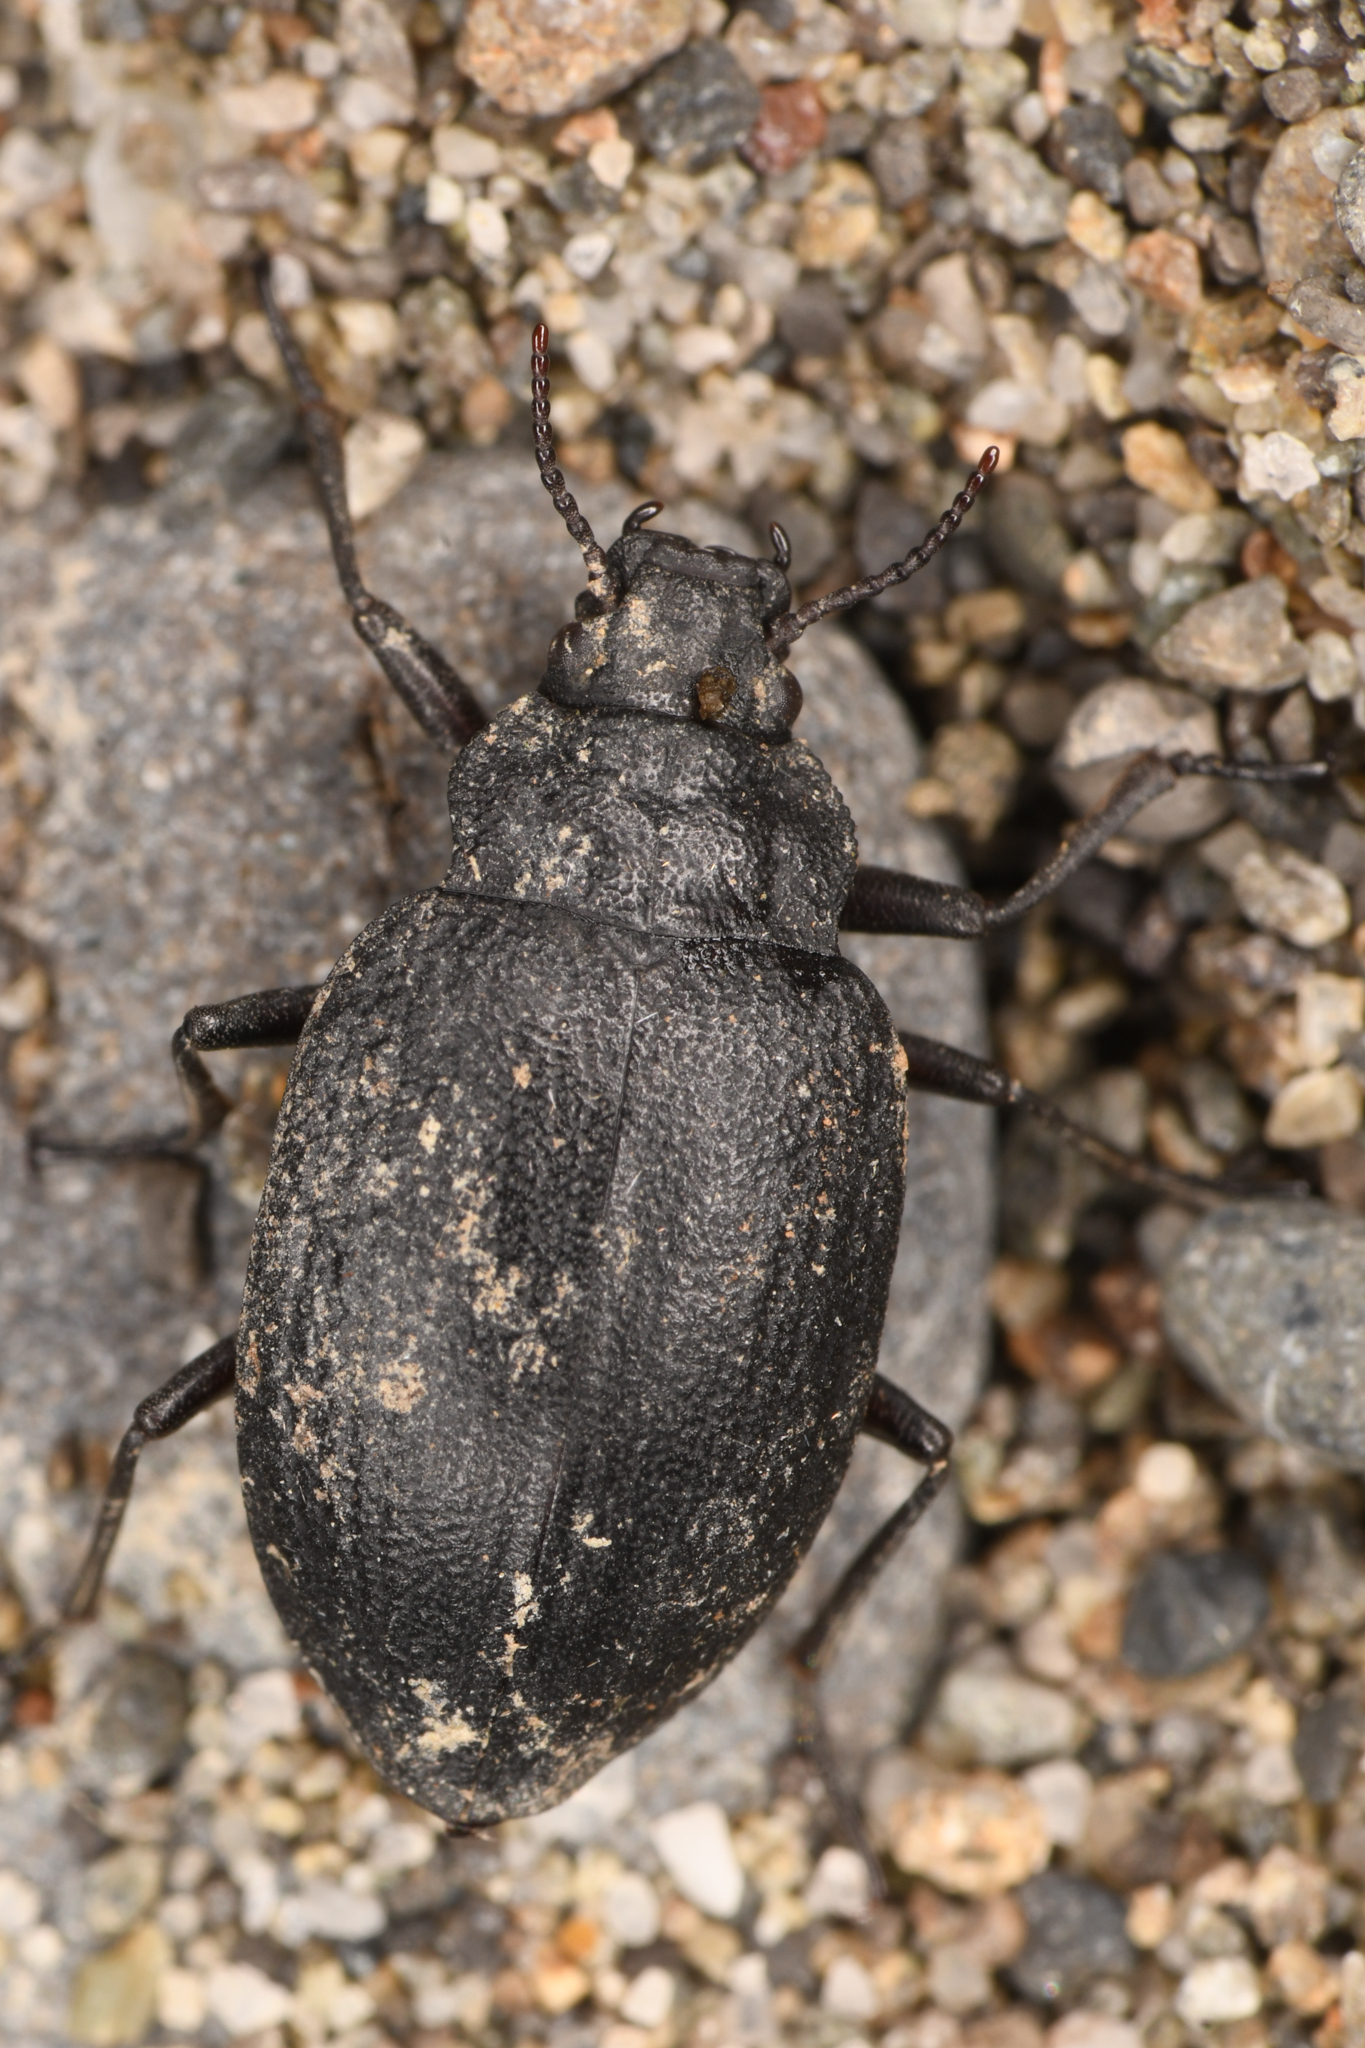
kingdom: Animalia
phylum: Arthropoda
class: Insecta
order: Coleoptera
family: Amphizoidae
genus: Amphizoa
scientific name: Amphizoa insolens
